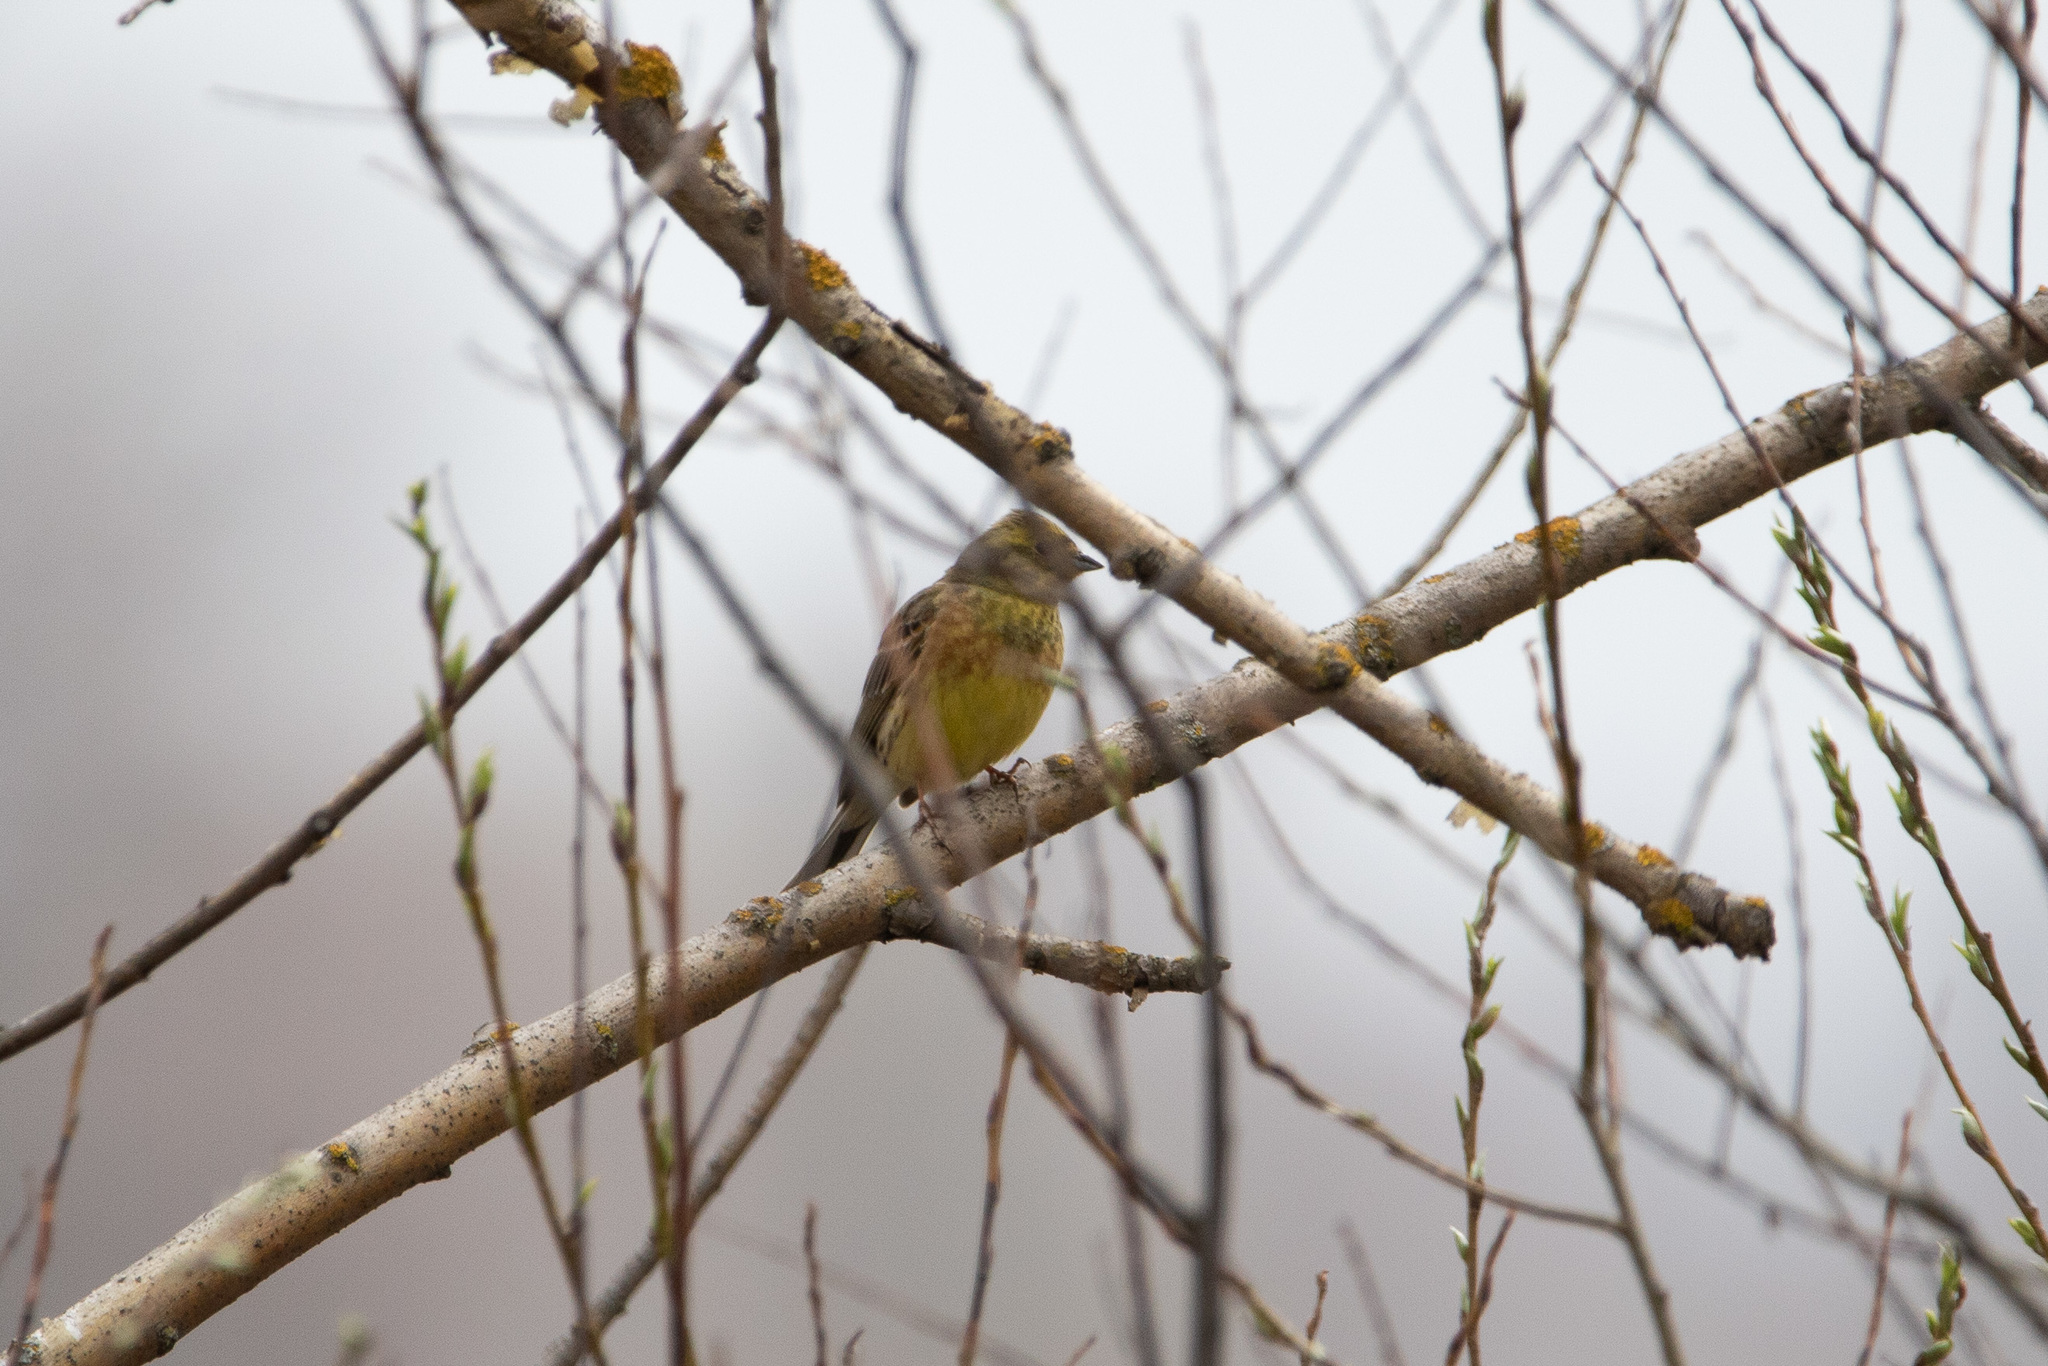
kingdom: Animalia
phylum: Chordata
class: Aves
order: Passeriformes
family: Emberizidae
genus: Emberiza
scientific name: Emberiza citrinella
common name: Yellowhammer
